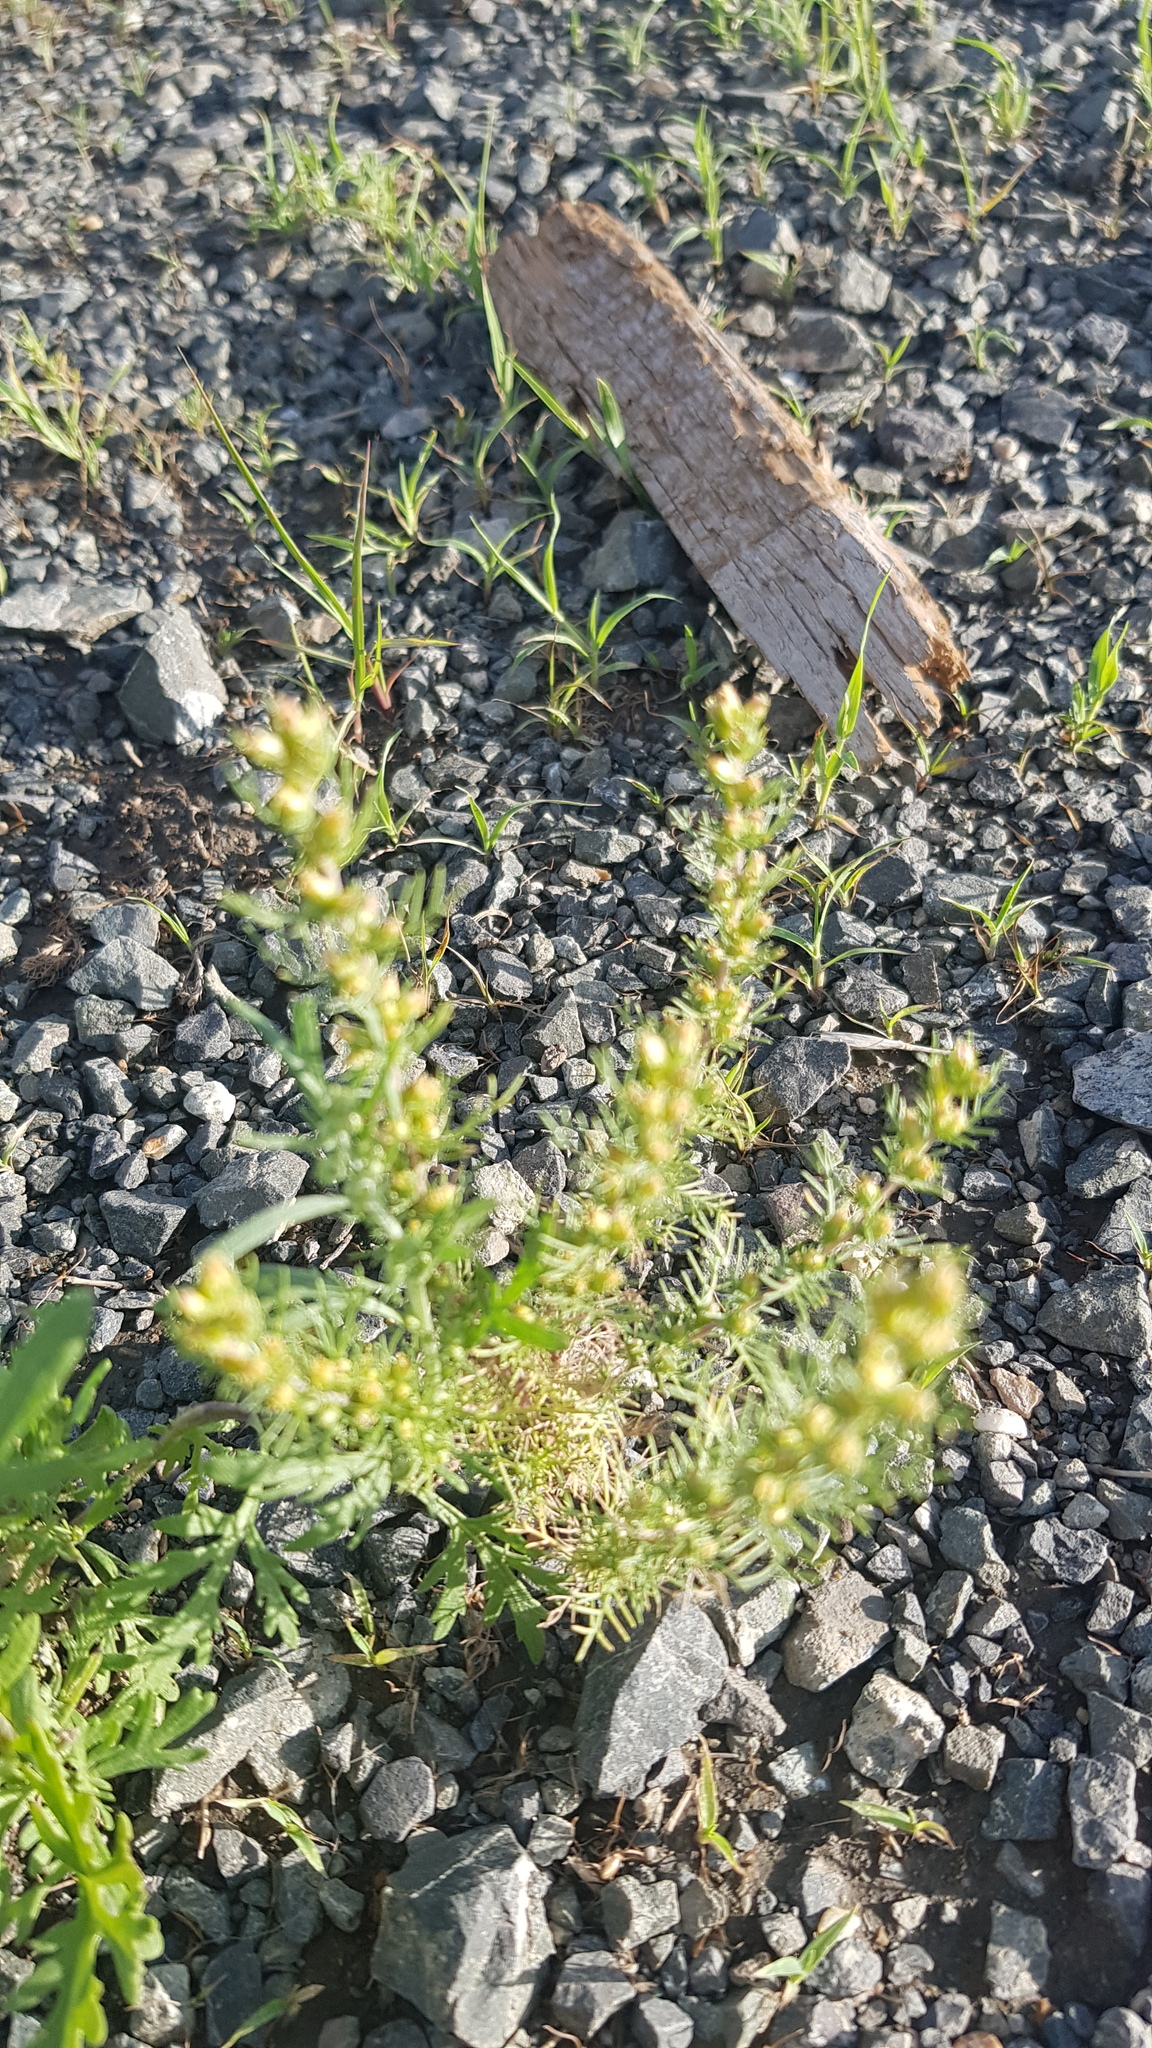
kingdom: Plantae
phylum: Tracheophyta
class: Magnoliopsida
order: Asterales
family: Asteraceae
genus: Neopallasia
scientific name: Neopallasia pectinata
